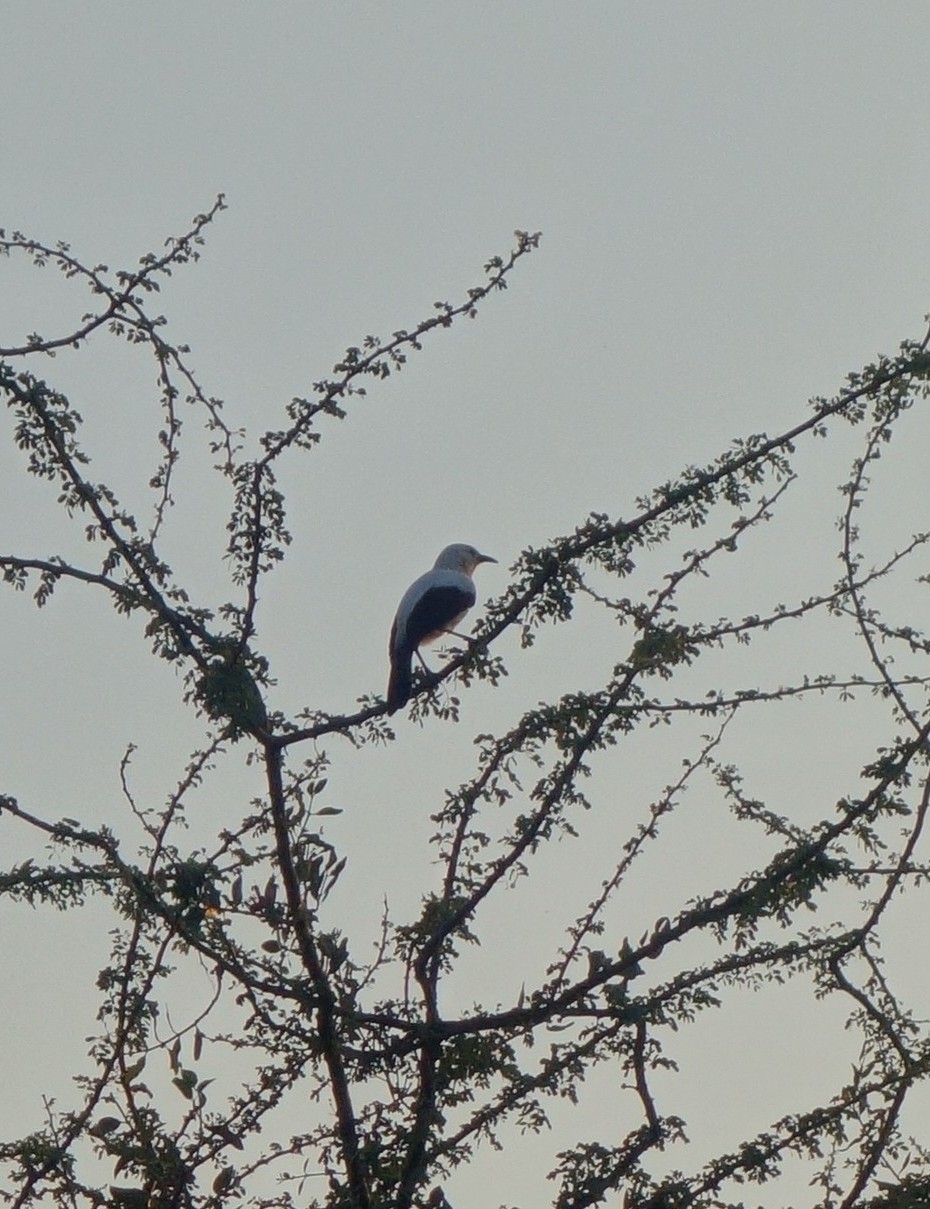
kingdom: Animalia
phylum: Chordata
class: Aves
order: Passeriformes
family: Leiothrichidae
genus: Turdoides
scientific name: Turdoides bicolor
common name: Southern pied babbler
